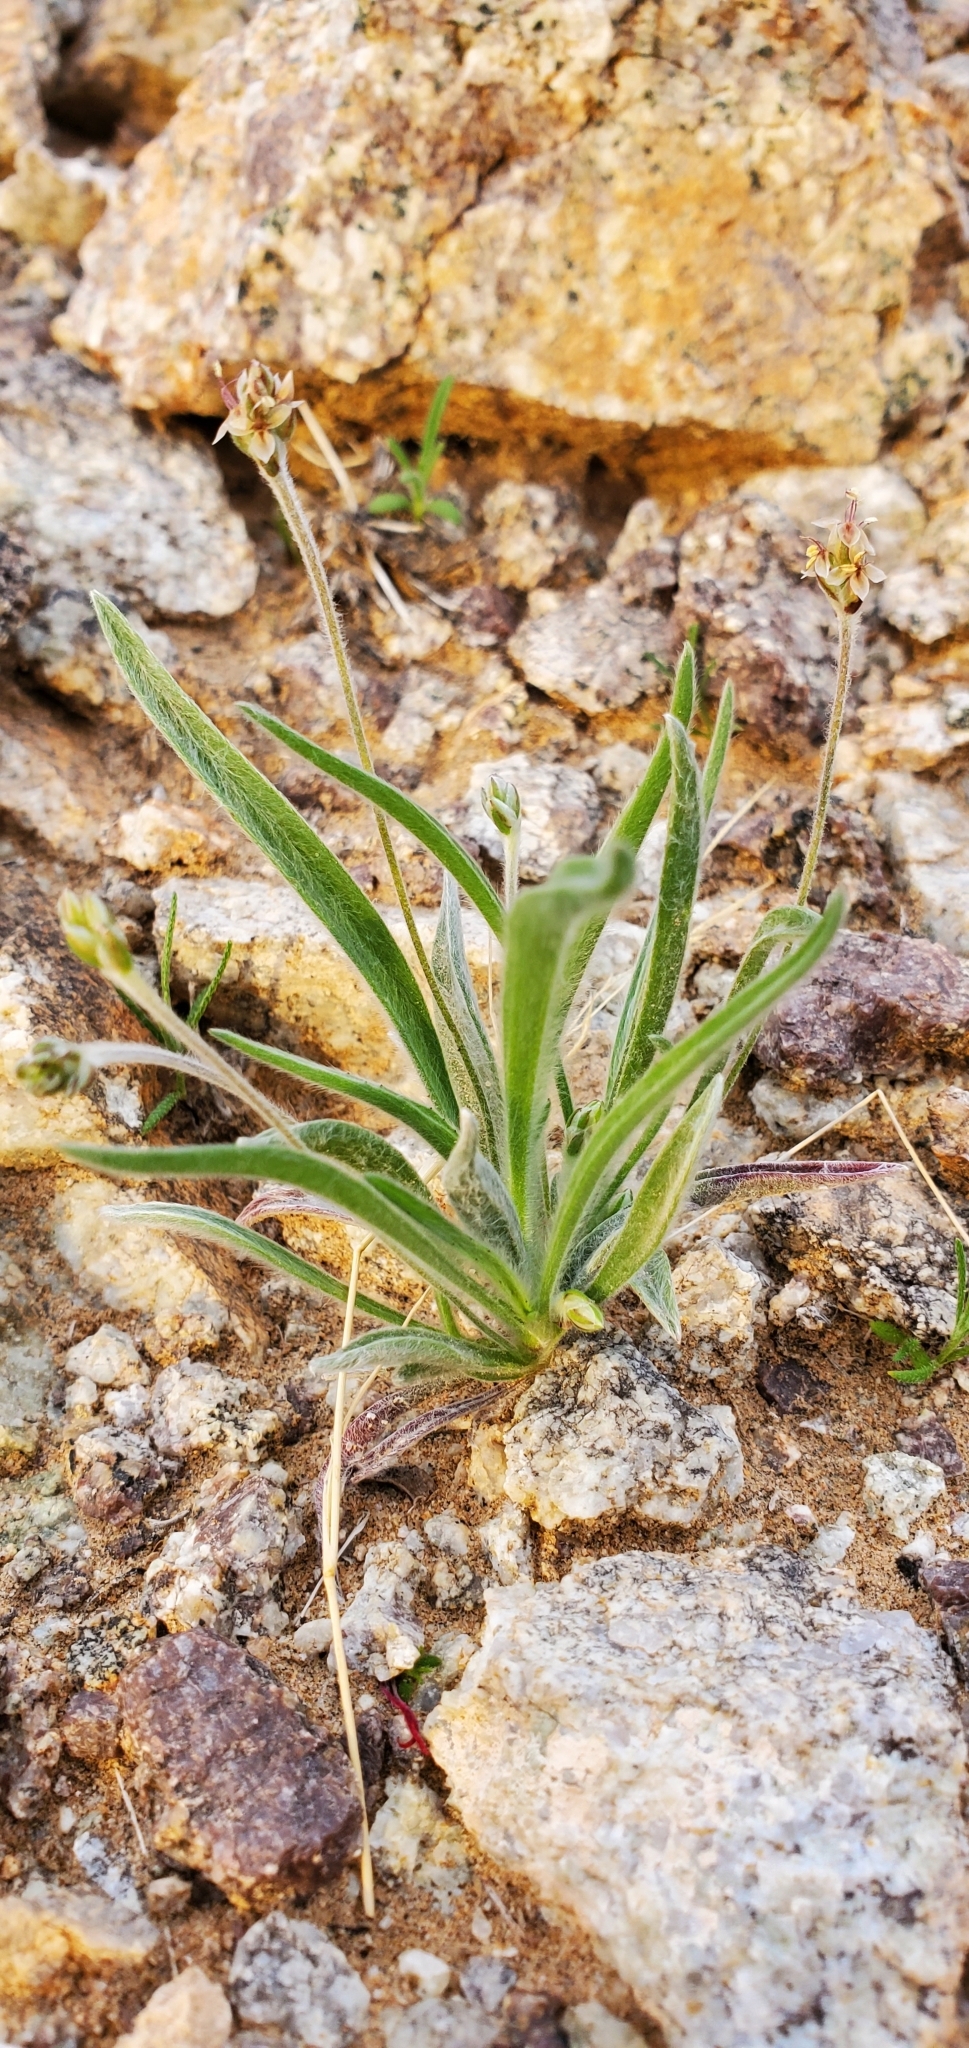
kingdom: Plantae
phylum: Tracheophyta
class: Magnoliopsida
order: Lamiales
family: Plantaginaceae
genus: Plantago
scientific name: Plantago ovata
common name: Blond plantain
